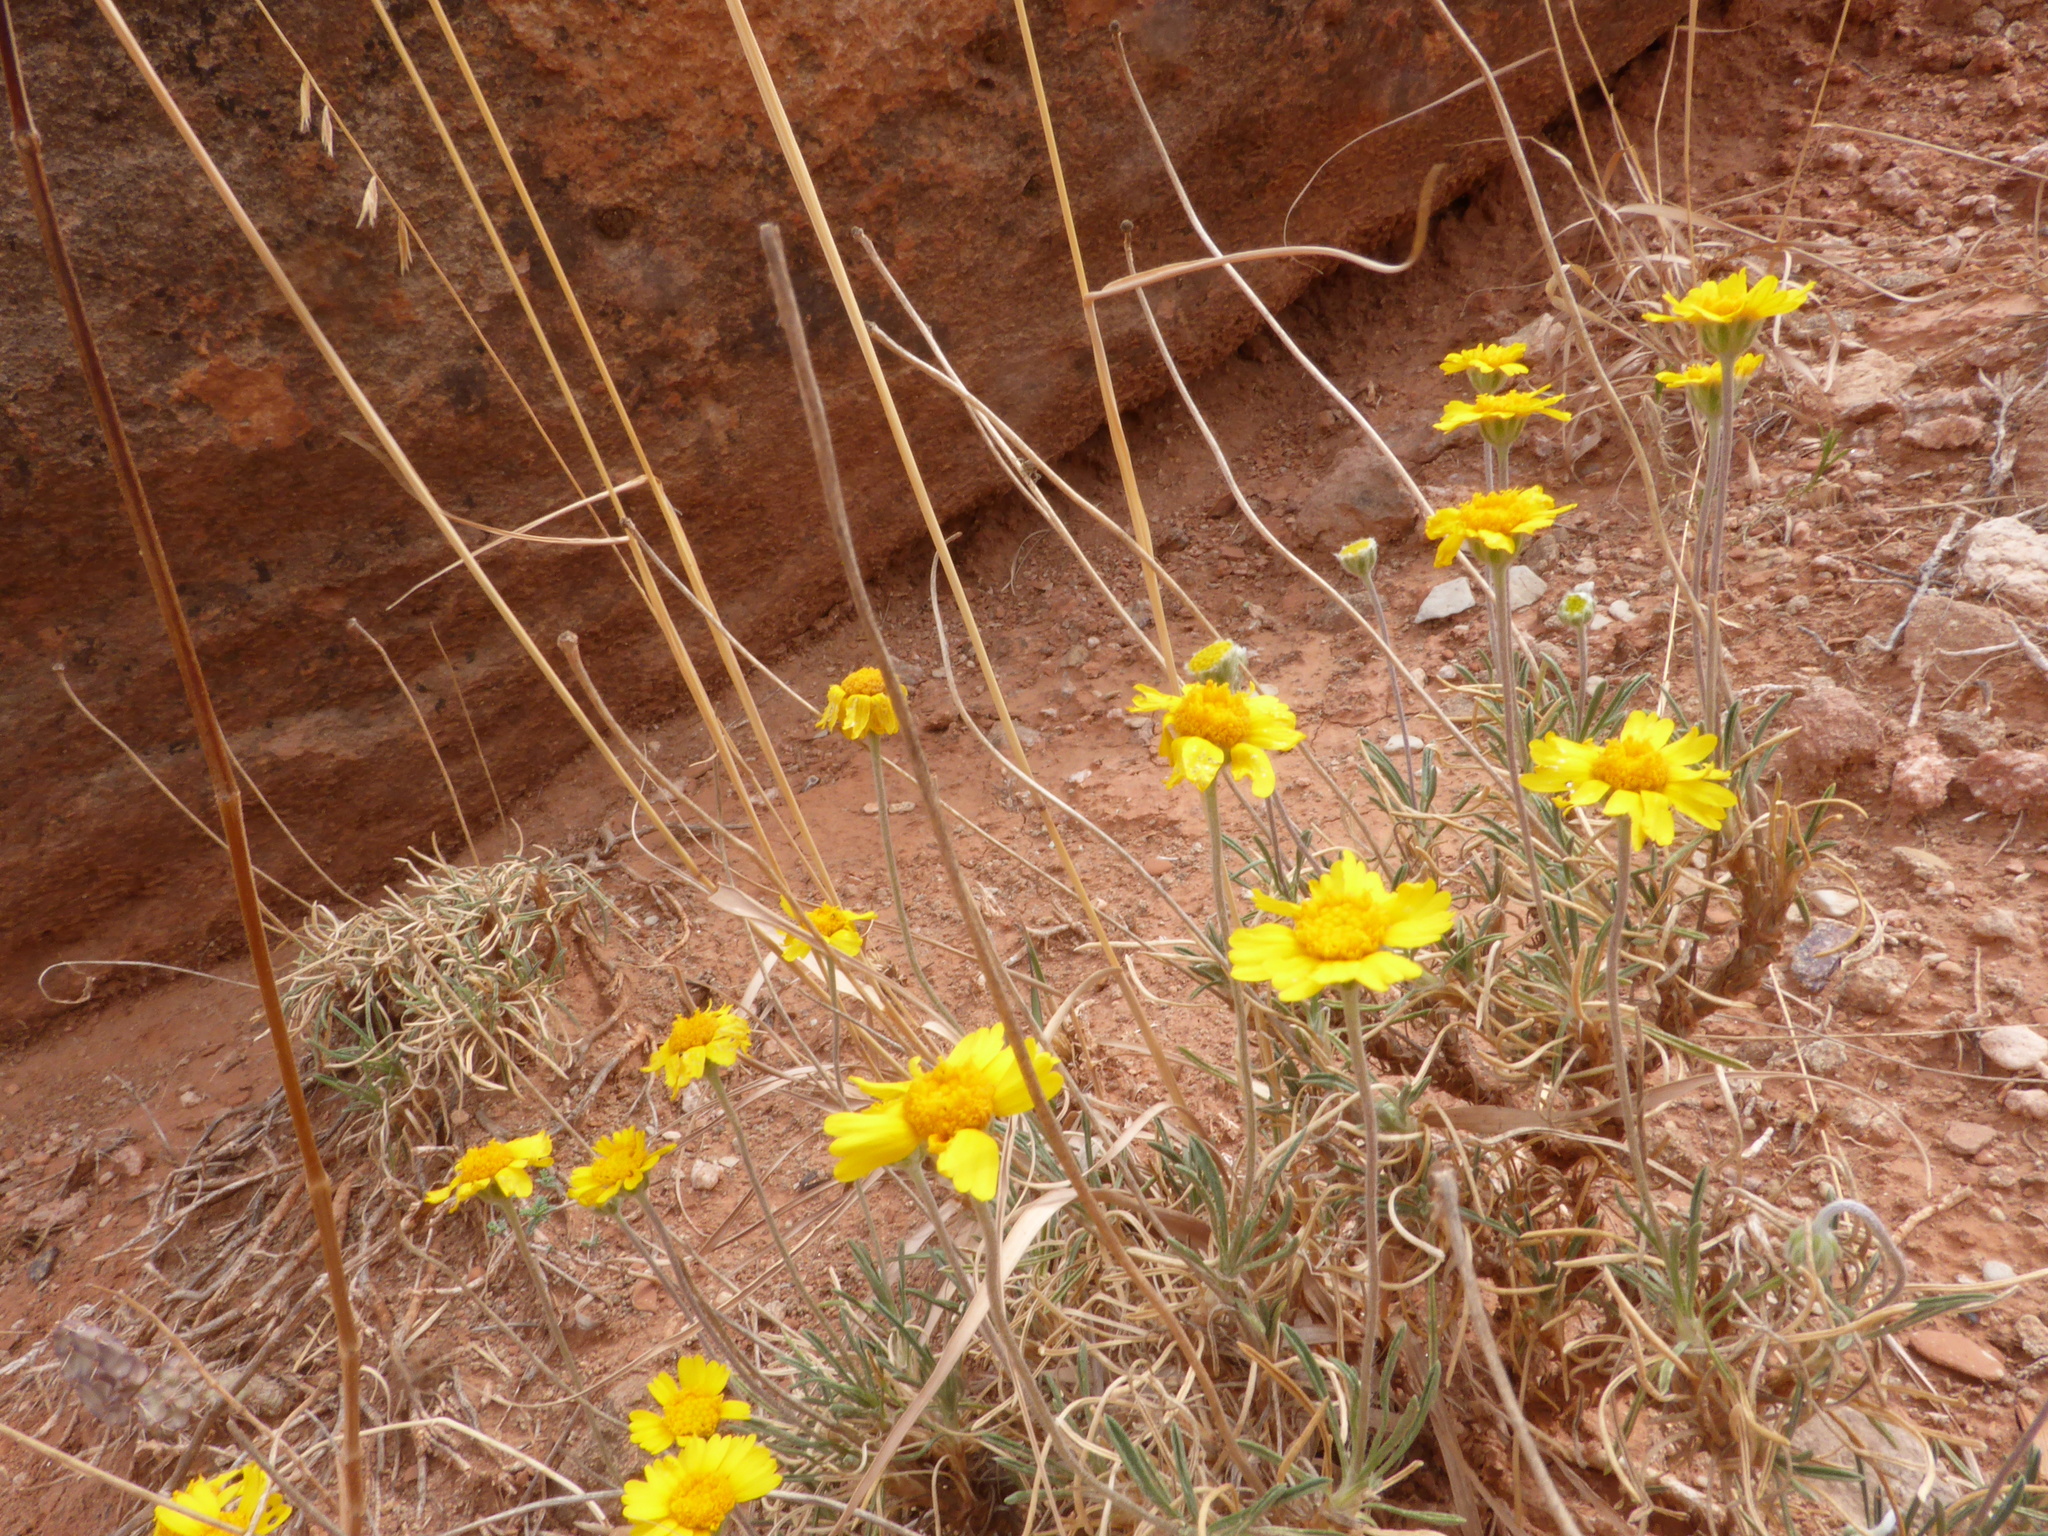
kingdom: Plantae
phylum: Tracheophyta
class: Magnoliopsida
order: Asterales
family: Asteraceae
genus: Tetraneuris
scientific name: Tetraneuris scaposa
